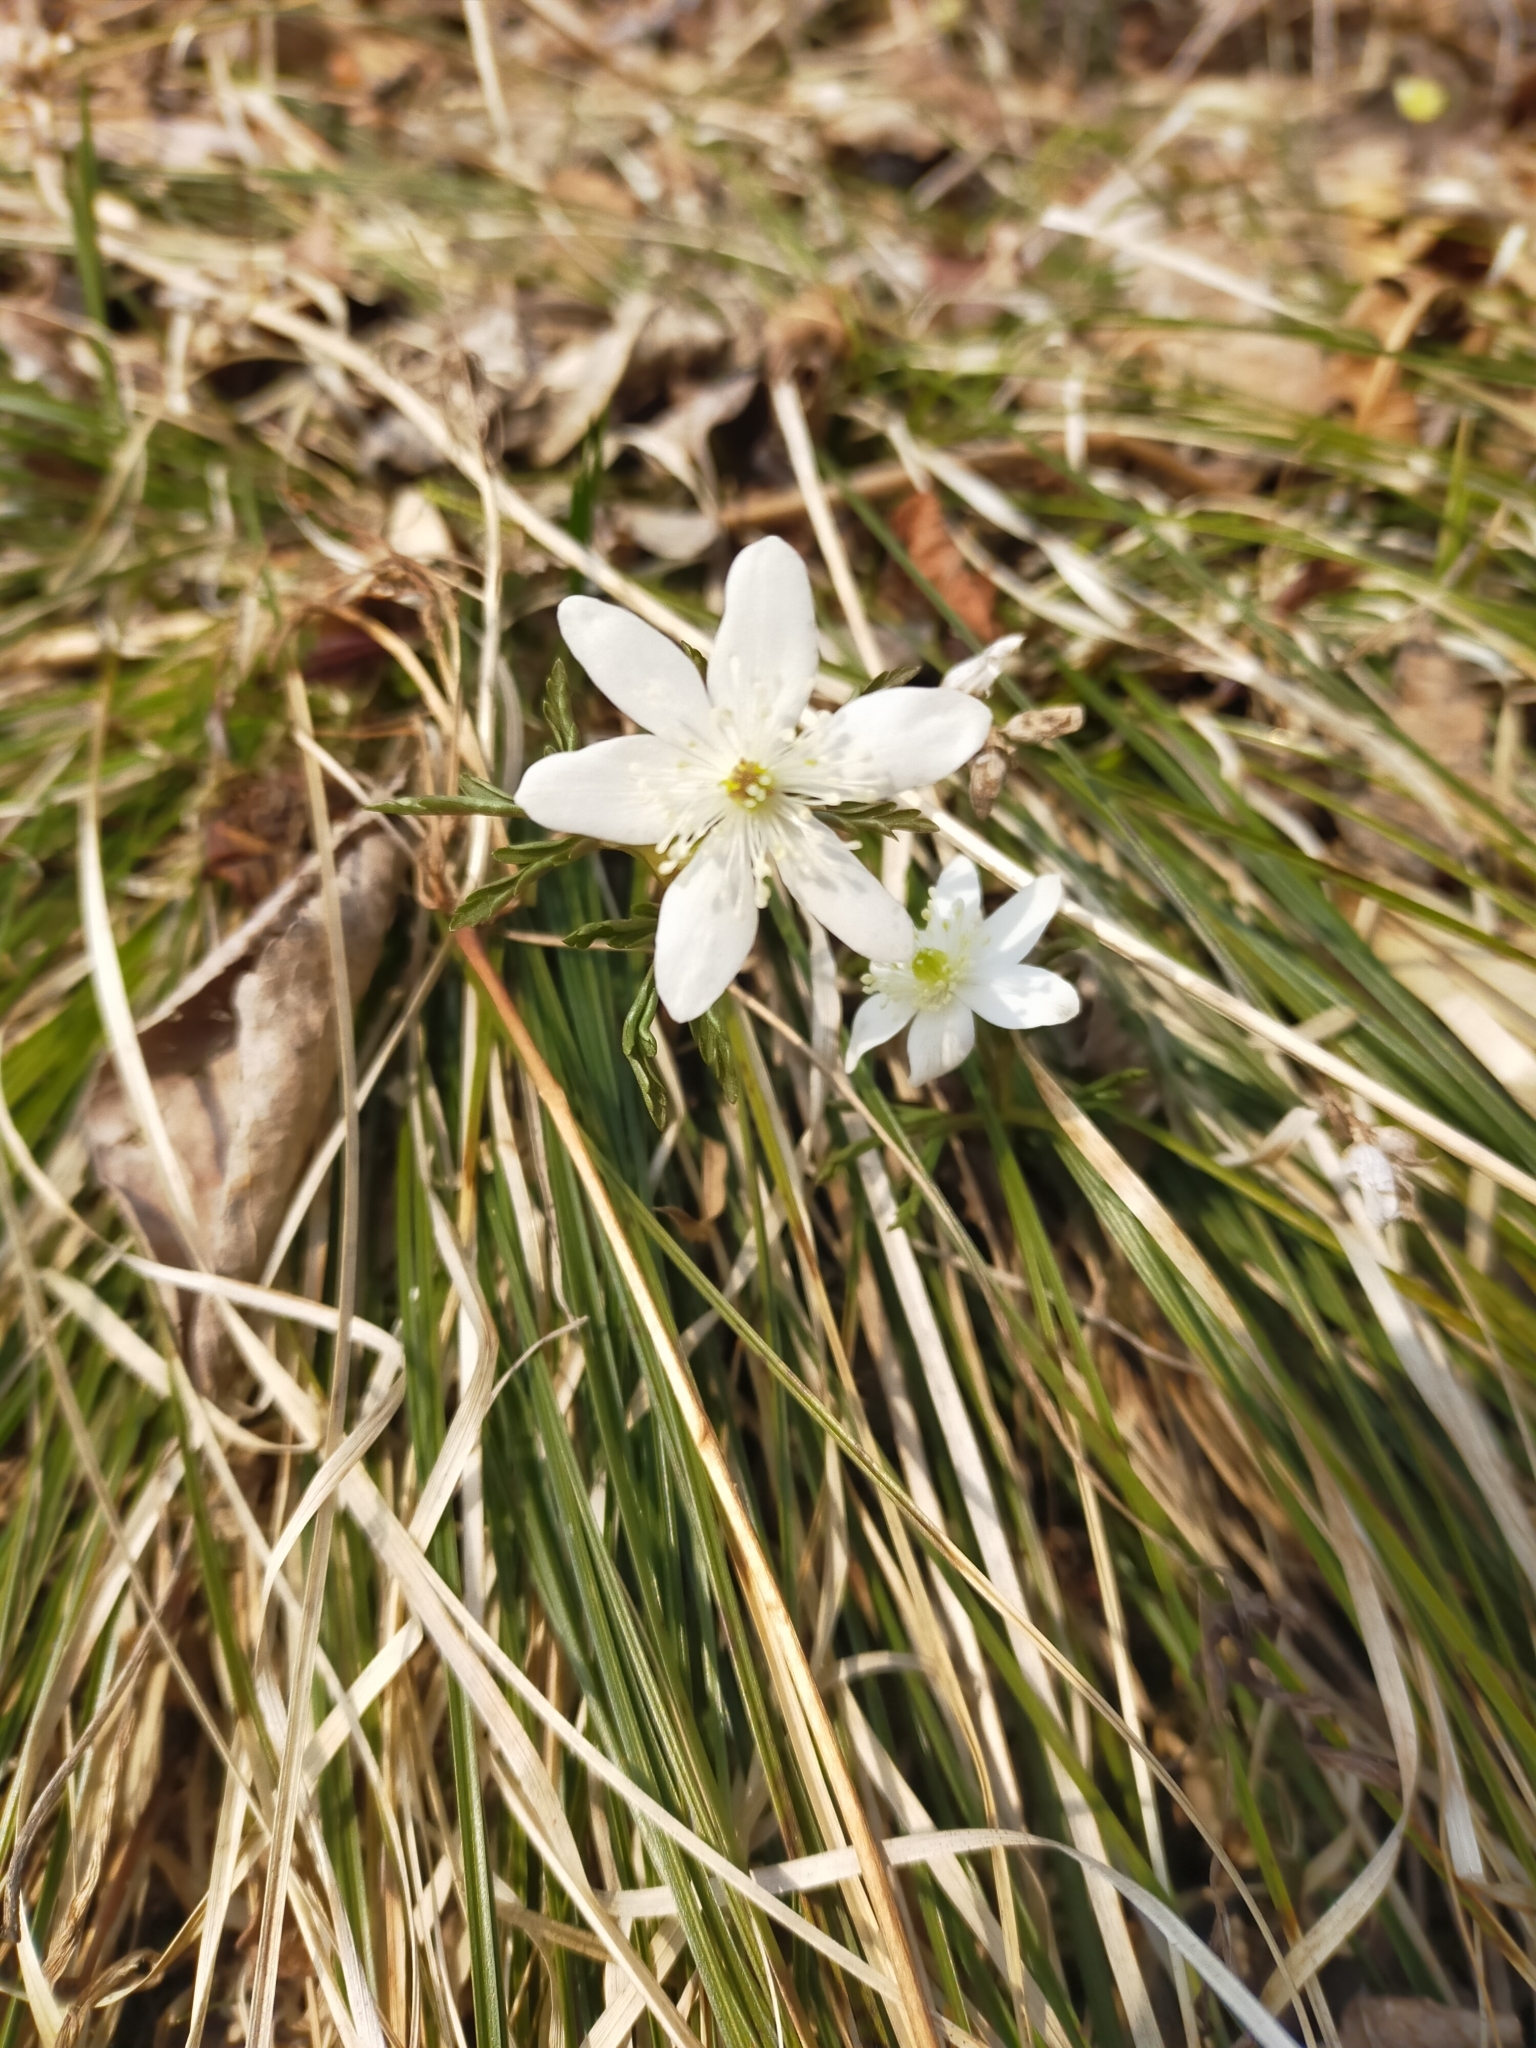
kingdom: Plantae
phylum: Tracheophyta
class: Magnoliopsida
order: Ranunculales
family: Ranunculaceae
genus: Anemone
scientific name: Anemone amurensis
